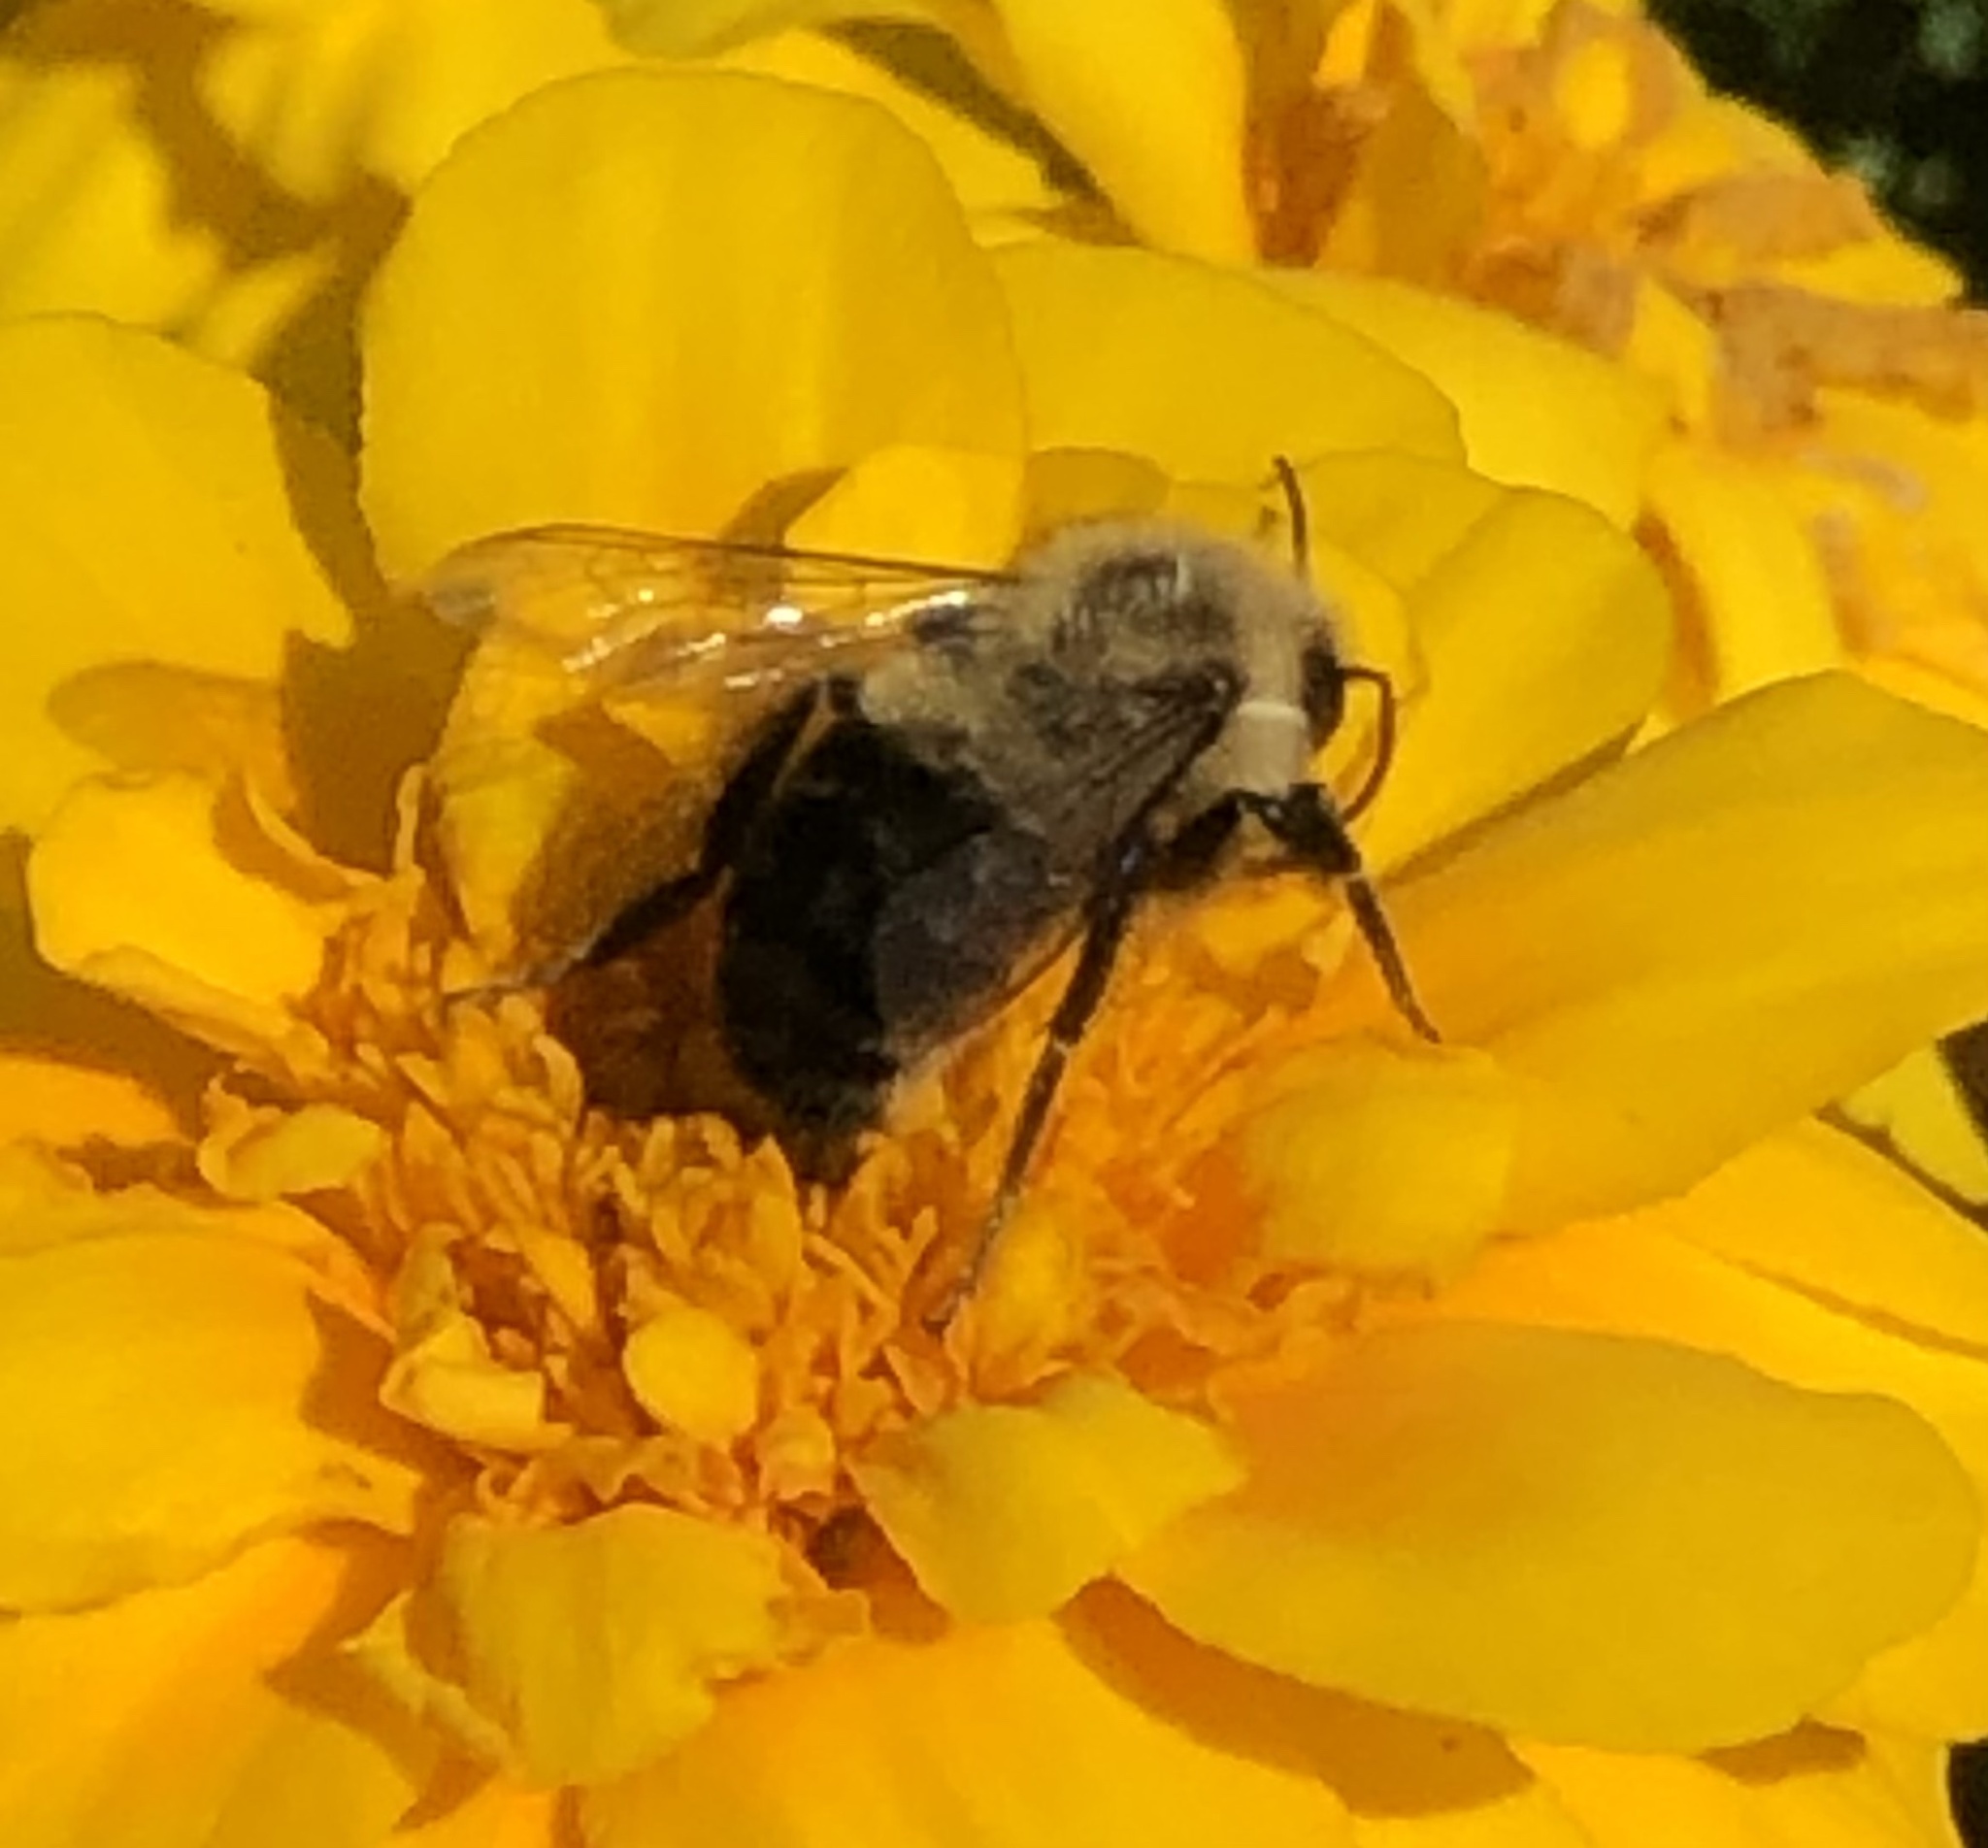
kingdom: Animalia
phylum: Arthropoda
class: Insecta
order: Hymenoptera
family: Apidae
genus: Bombus
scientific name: Bombus impatiens
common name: Common eastern bumble bee
